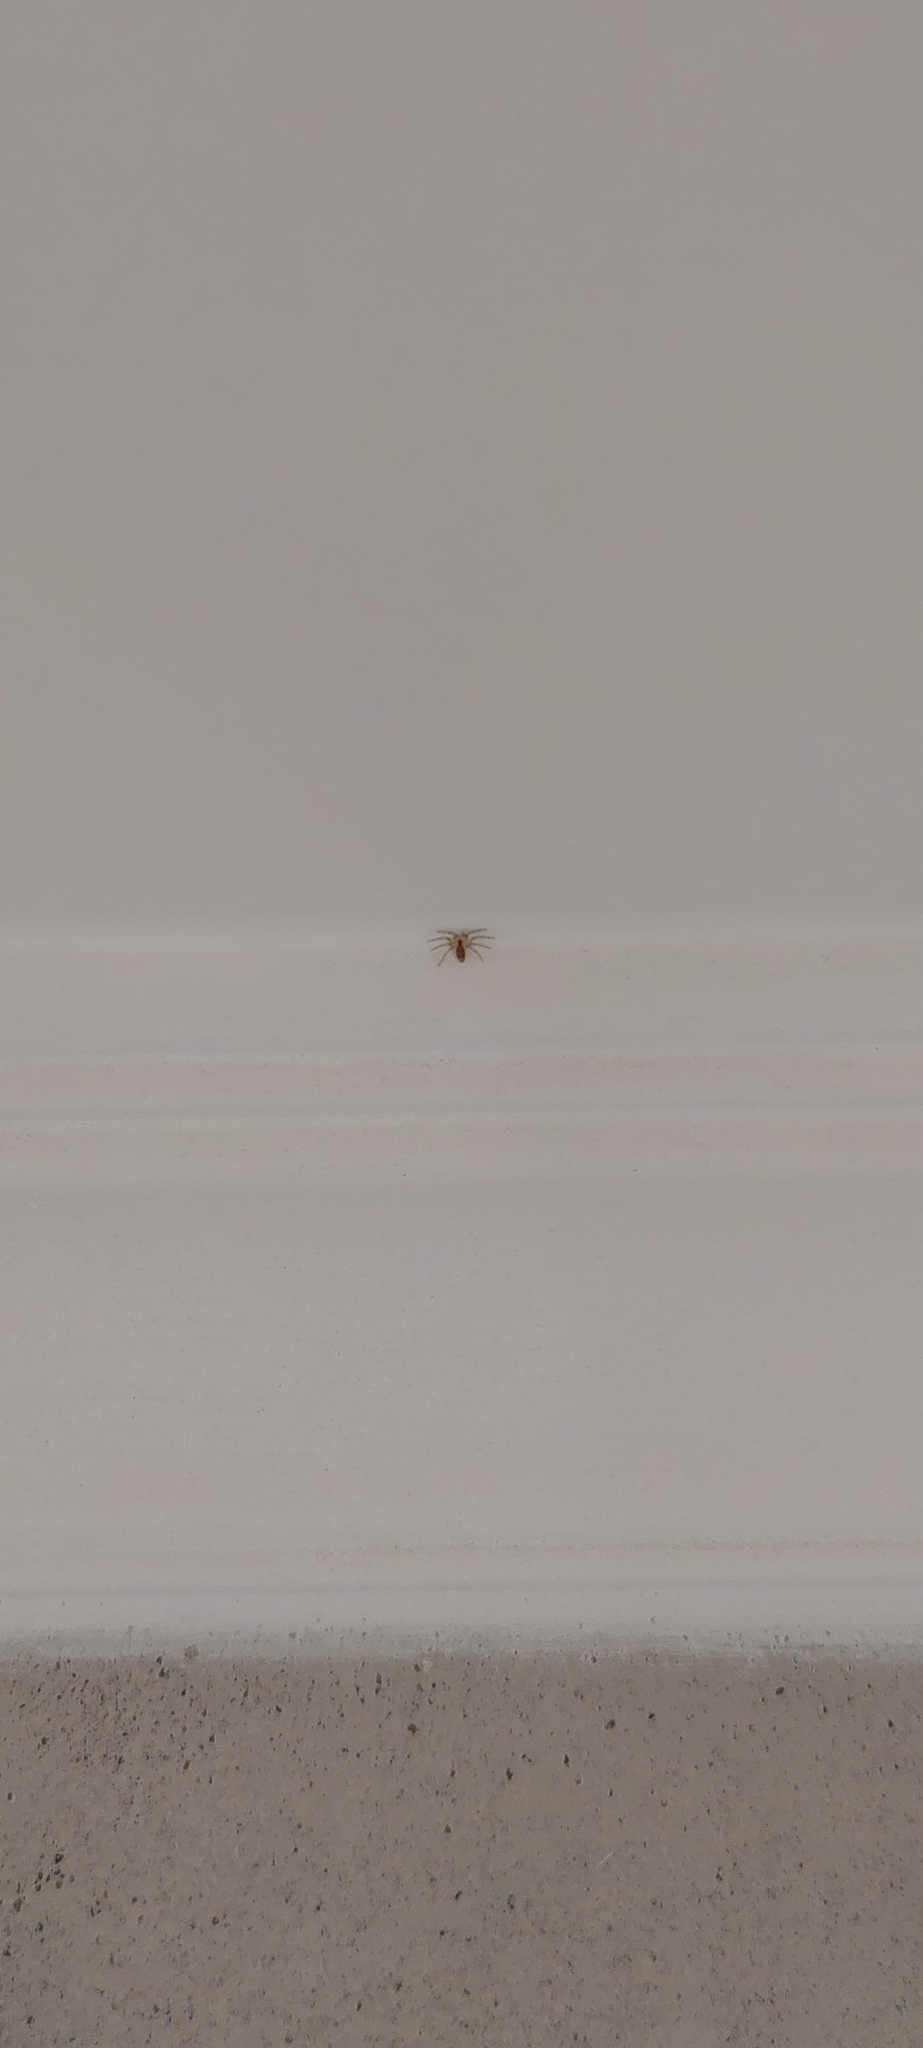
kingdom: Animalia
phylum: Arthropoda
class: Arachnida
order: Araneae
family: Oecobiidae
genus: Oecobius
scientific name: Oecobius navus
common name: Flatmesh weaver
